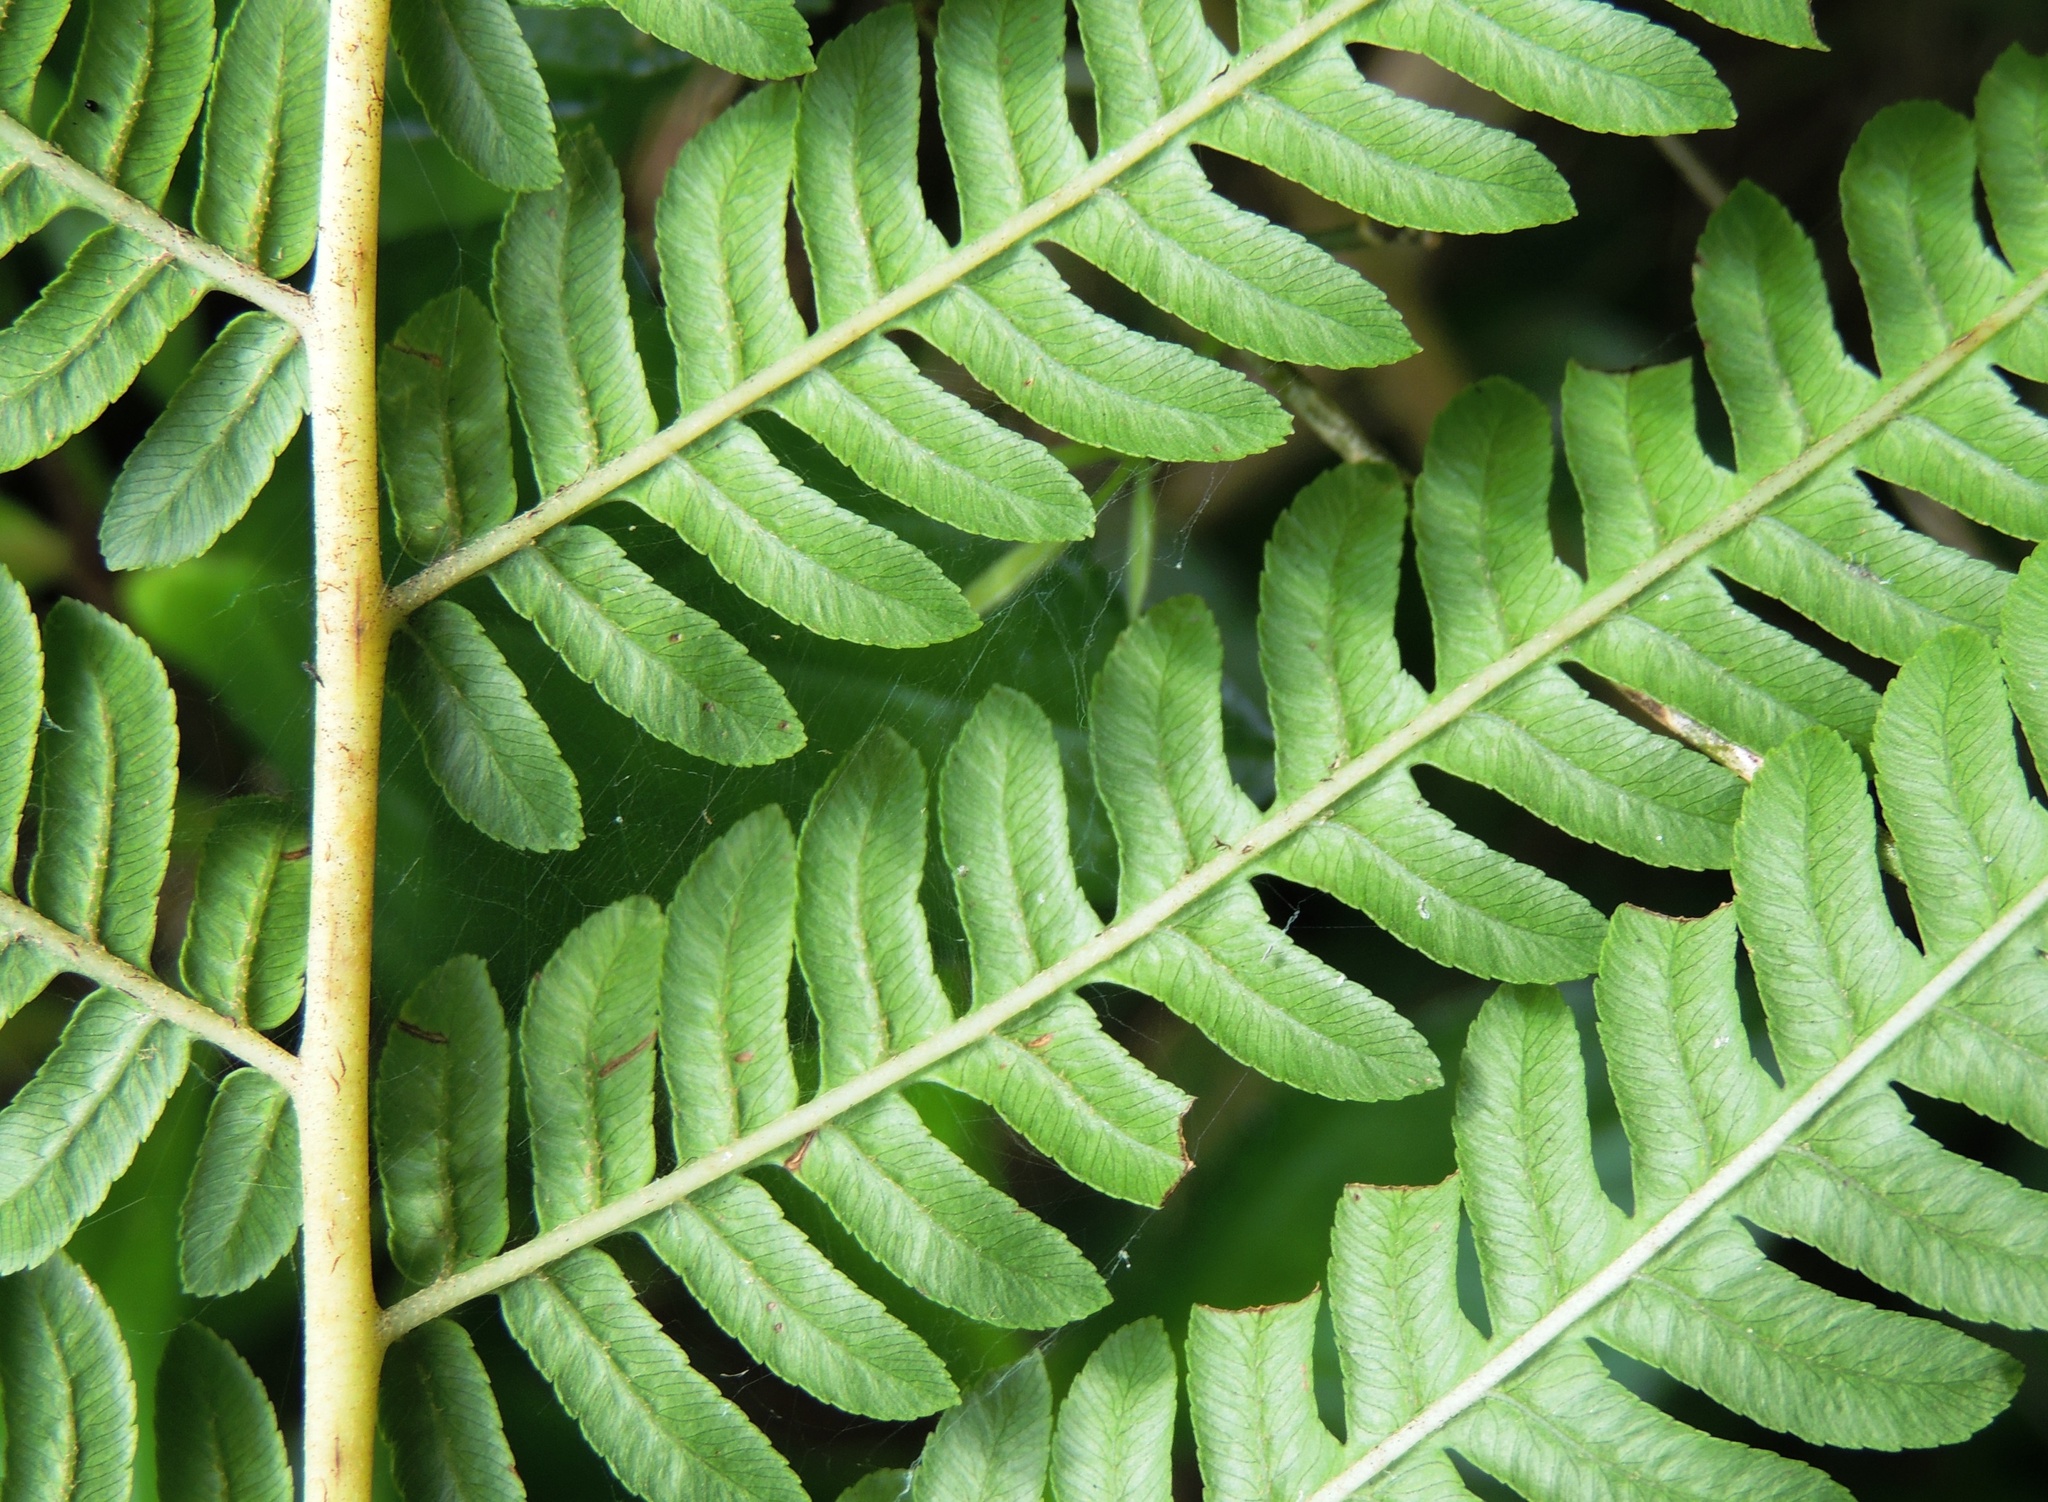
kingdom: Plantae
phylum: Tracheophyta
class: Polypodiopsida
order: Cyatheales
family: Cyatheaceae
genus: Sphaeropteris
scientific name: Sphaeropteris cooperi
